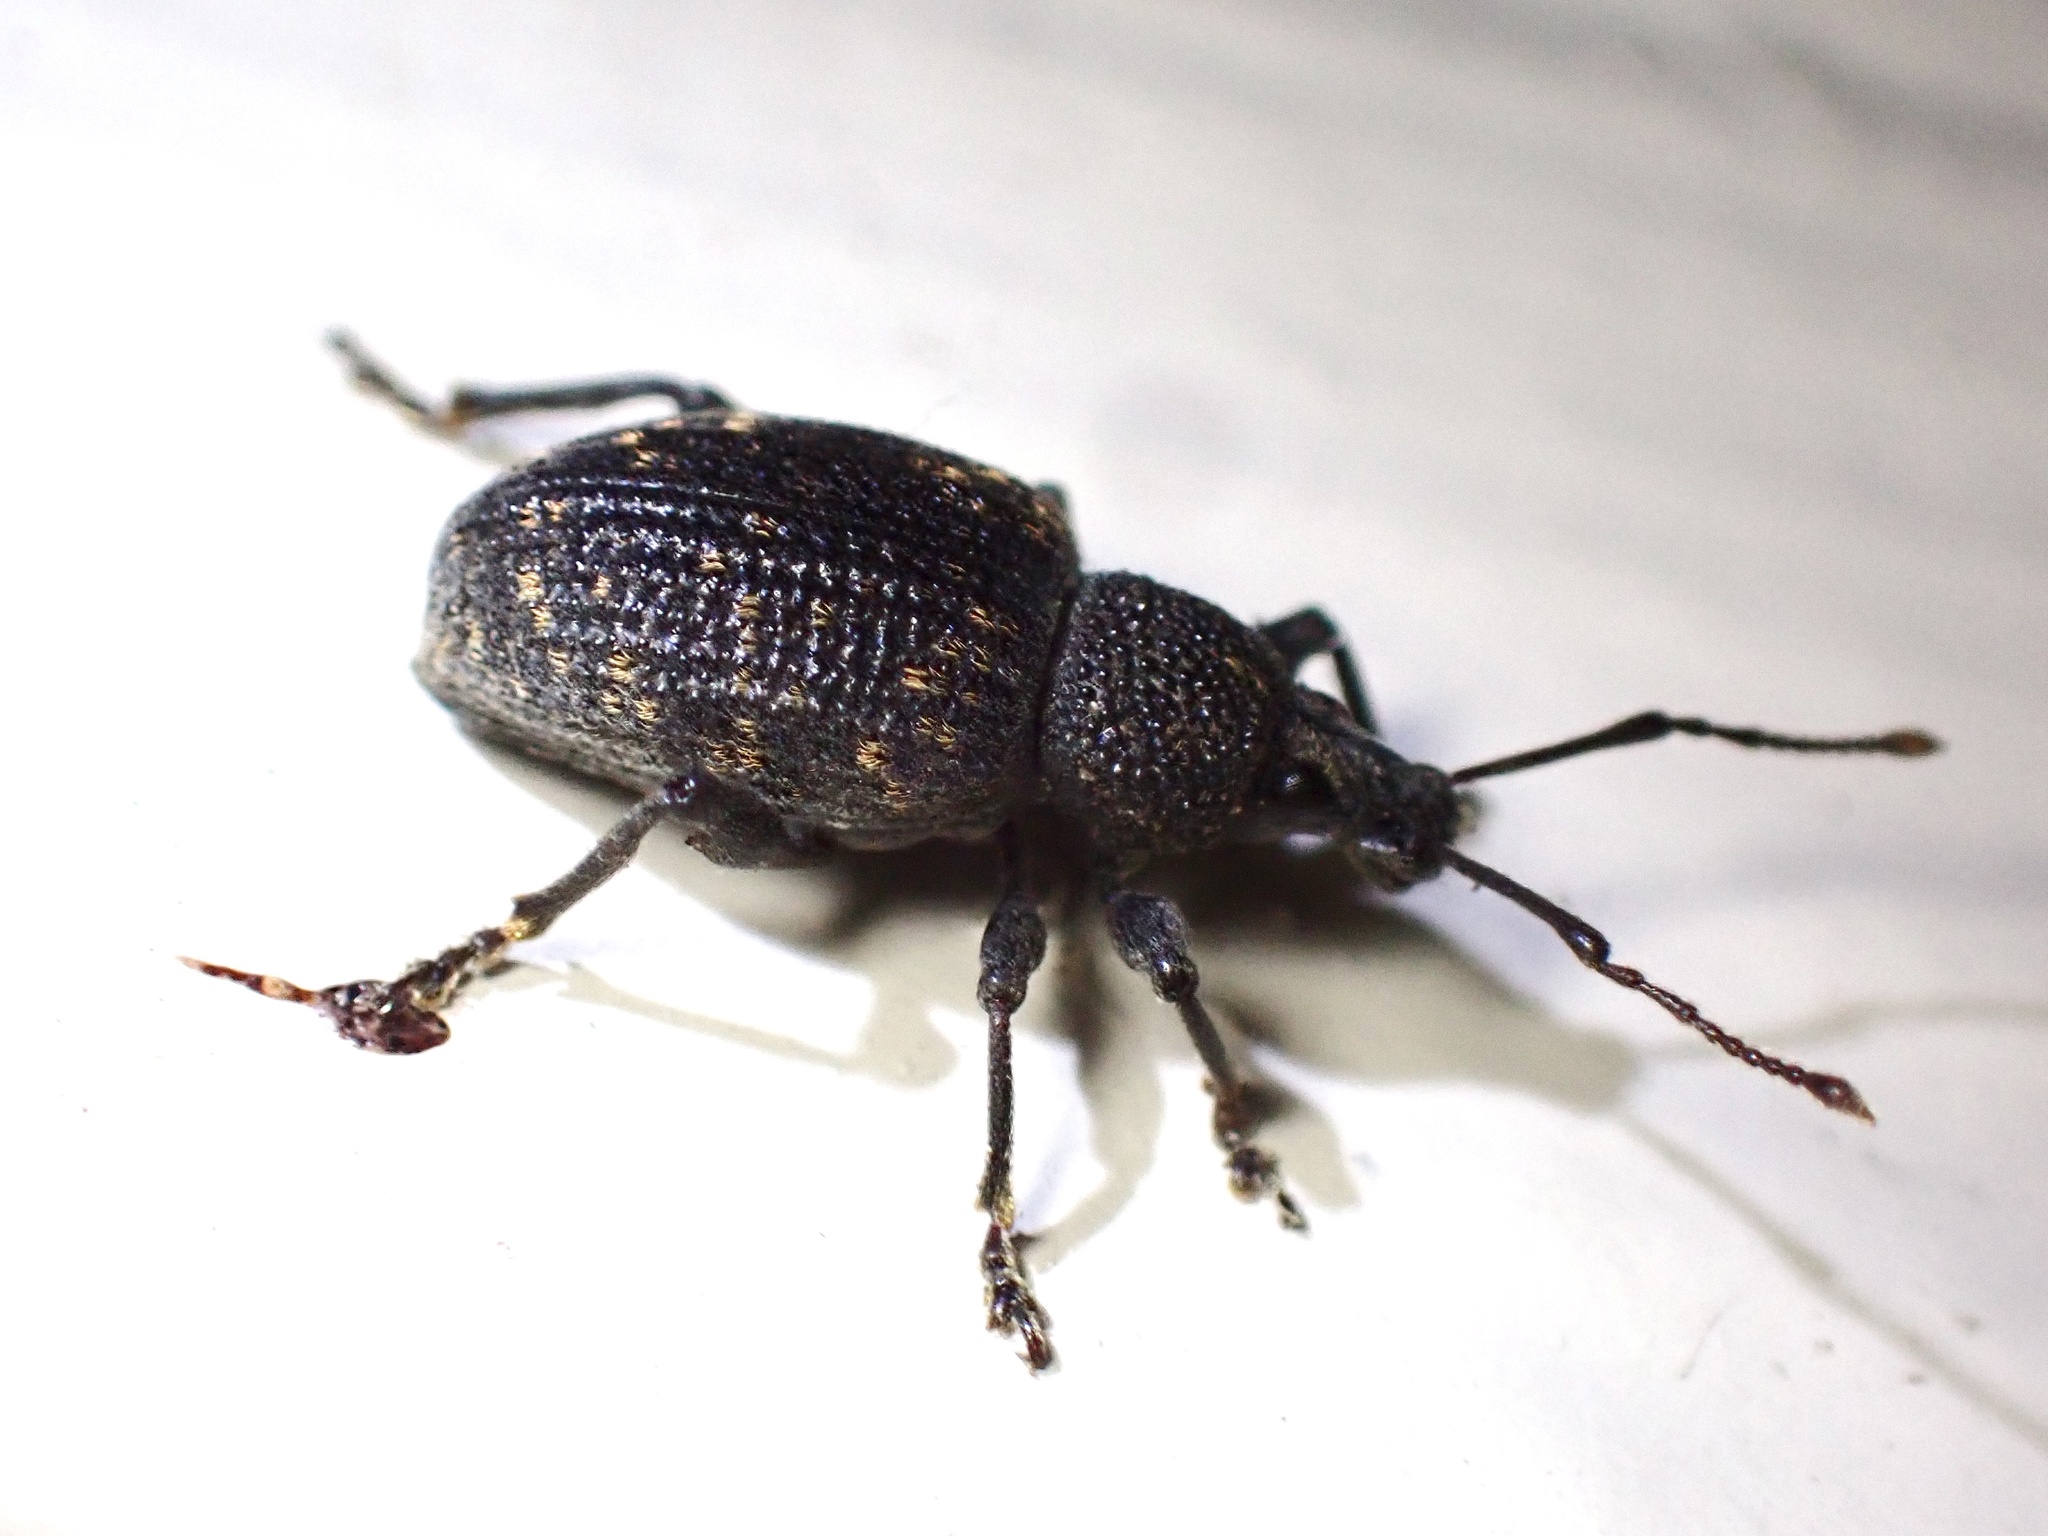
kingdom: Animalia
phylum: Arthropoda
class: Insecta
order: Coleoptera
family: Curculionidae
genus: Otiorhynchus
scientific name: Otiorhynchus sulcatus
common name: Black vine weevil
